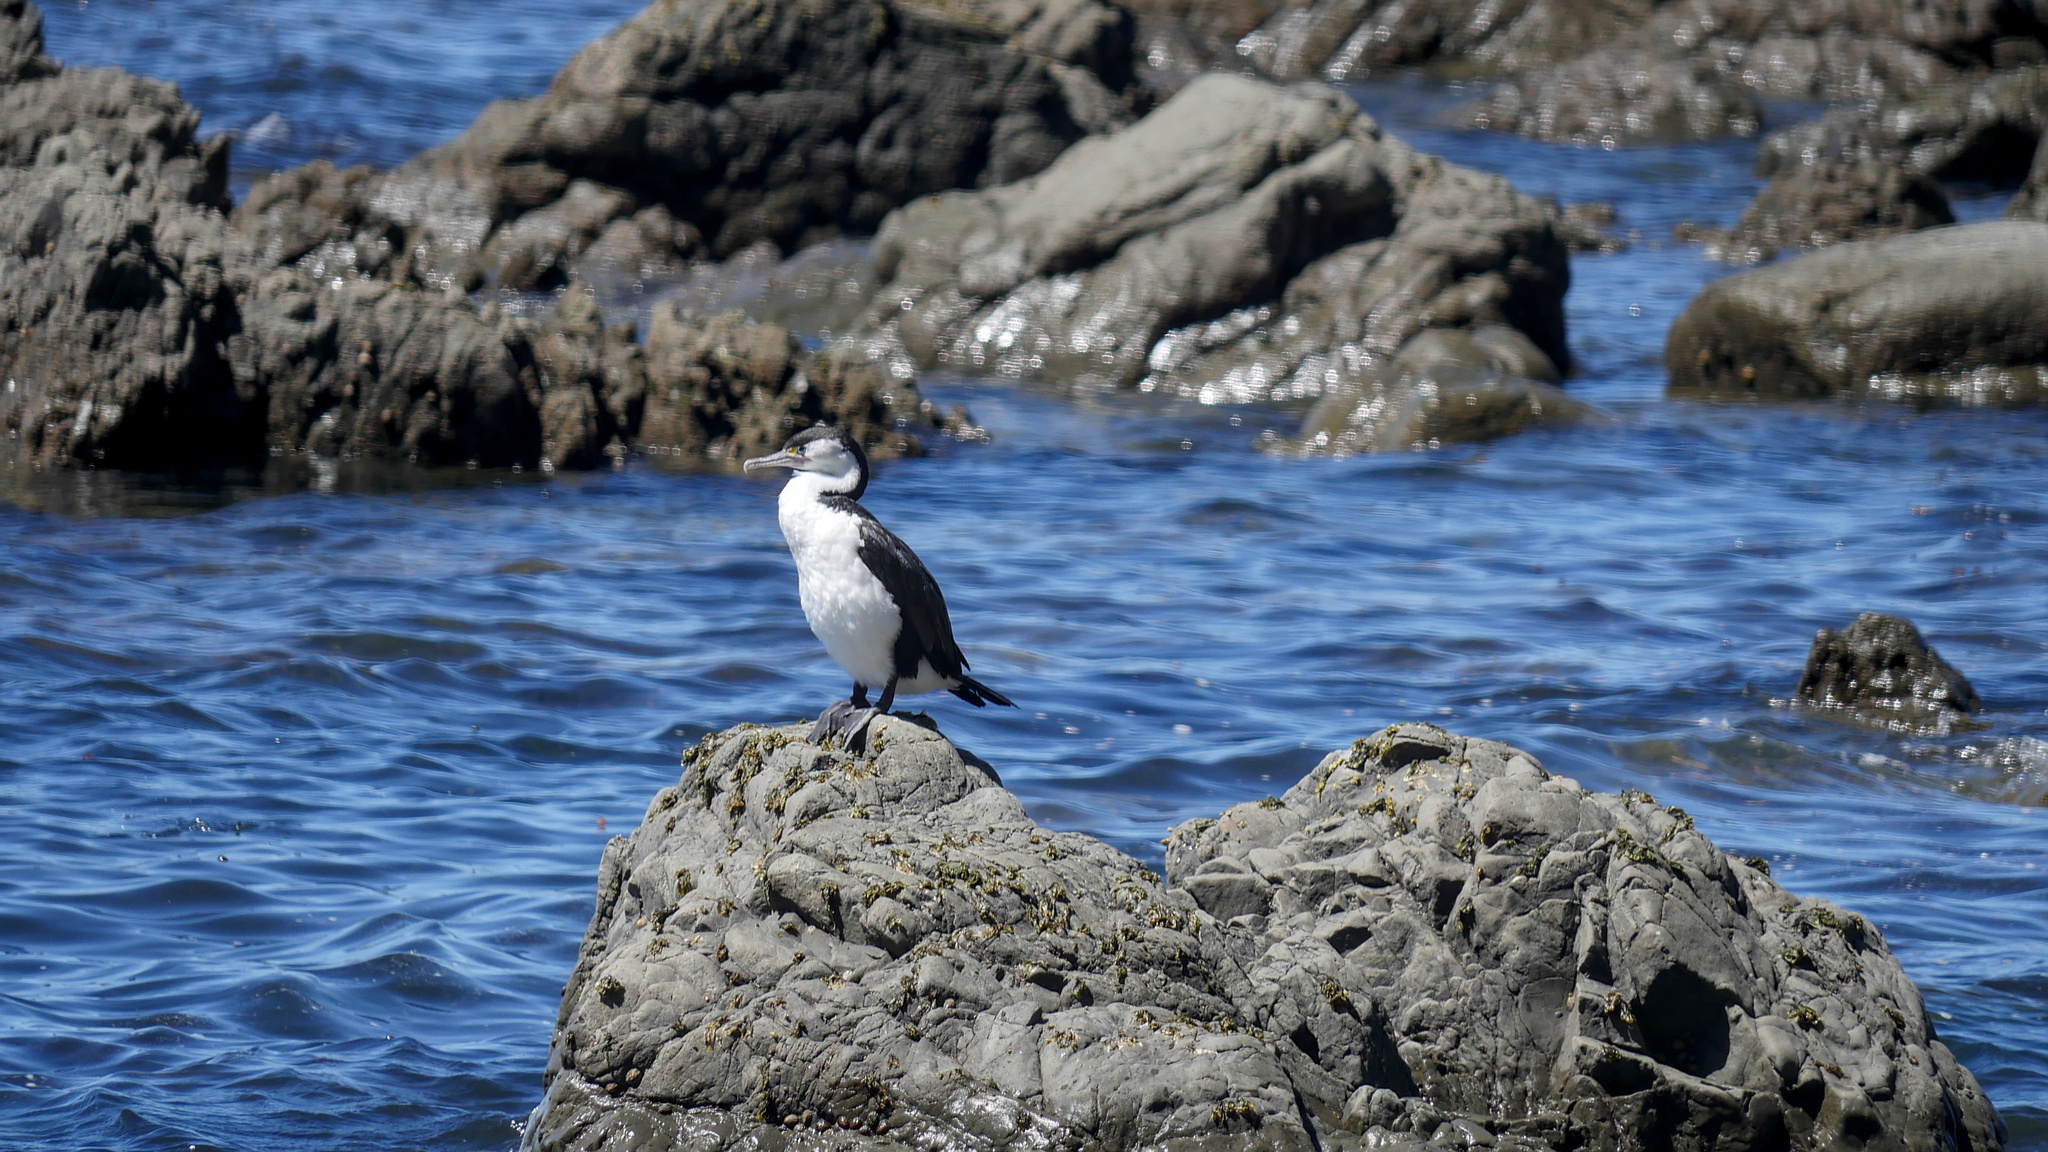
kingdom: Animalia
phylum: Chordata
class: Aves
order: Suliformes
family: Phalacrocoracidae
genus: Phalacrocorax
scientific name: Phalacrocorax varius
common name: Pied cormorant
